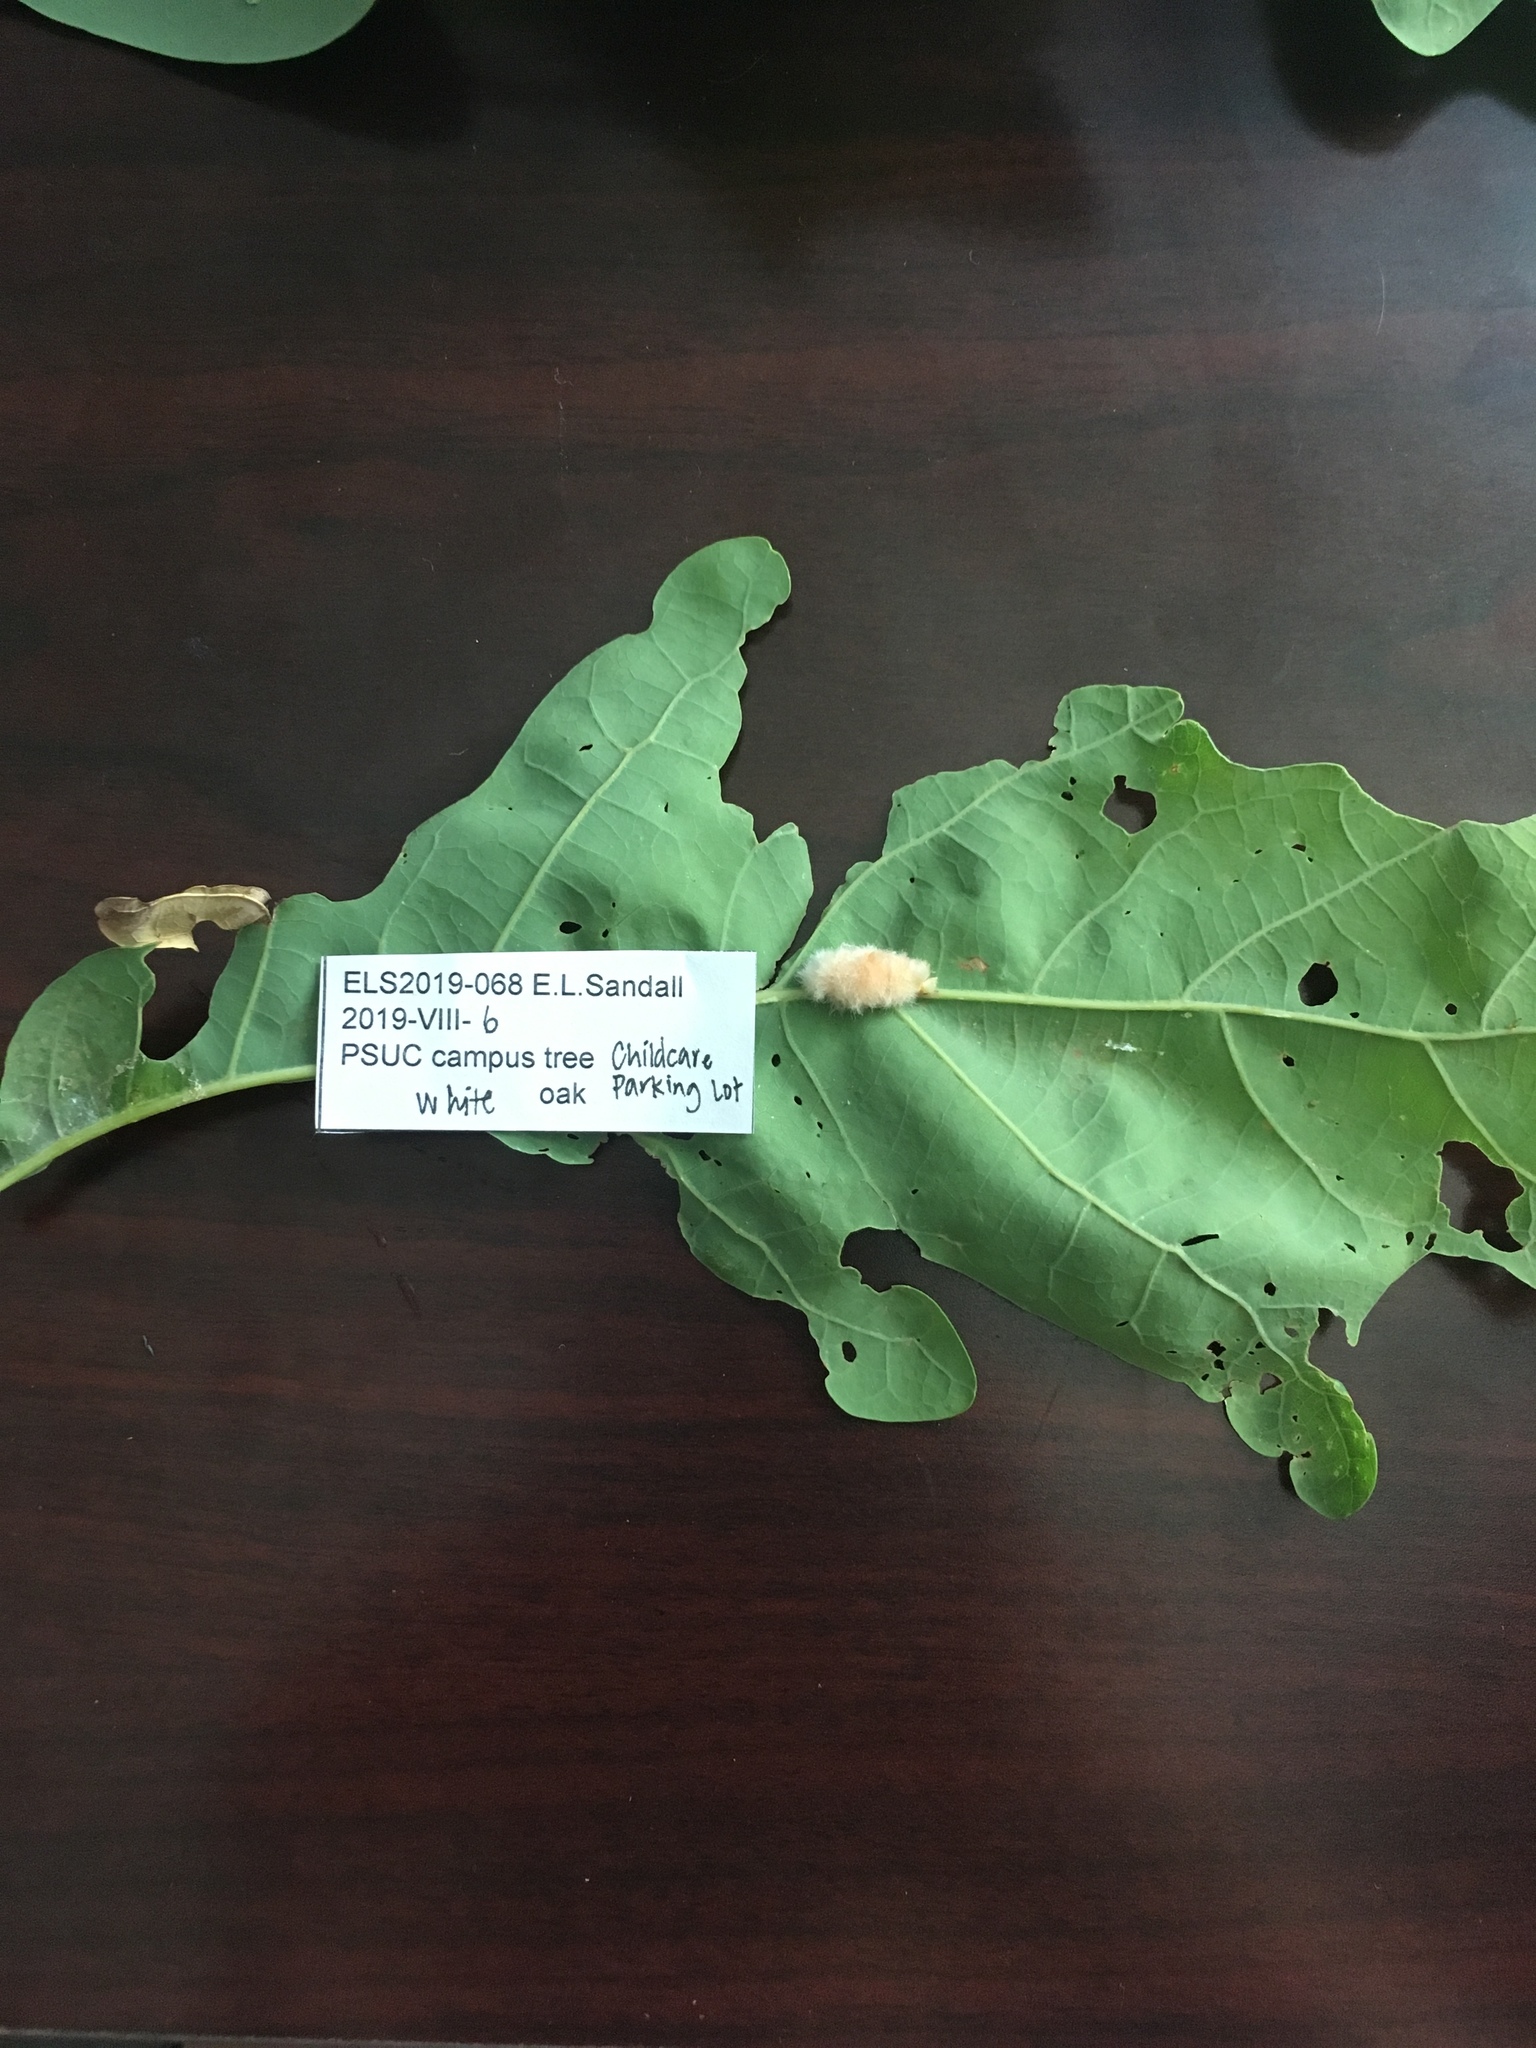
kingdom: Animalia
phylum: Arthropoda
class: Insecta
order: Hymenoptera
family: Cynipidae
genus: Andricus
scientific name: Andricus quercusflocci
